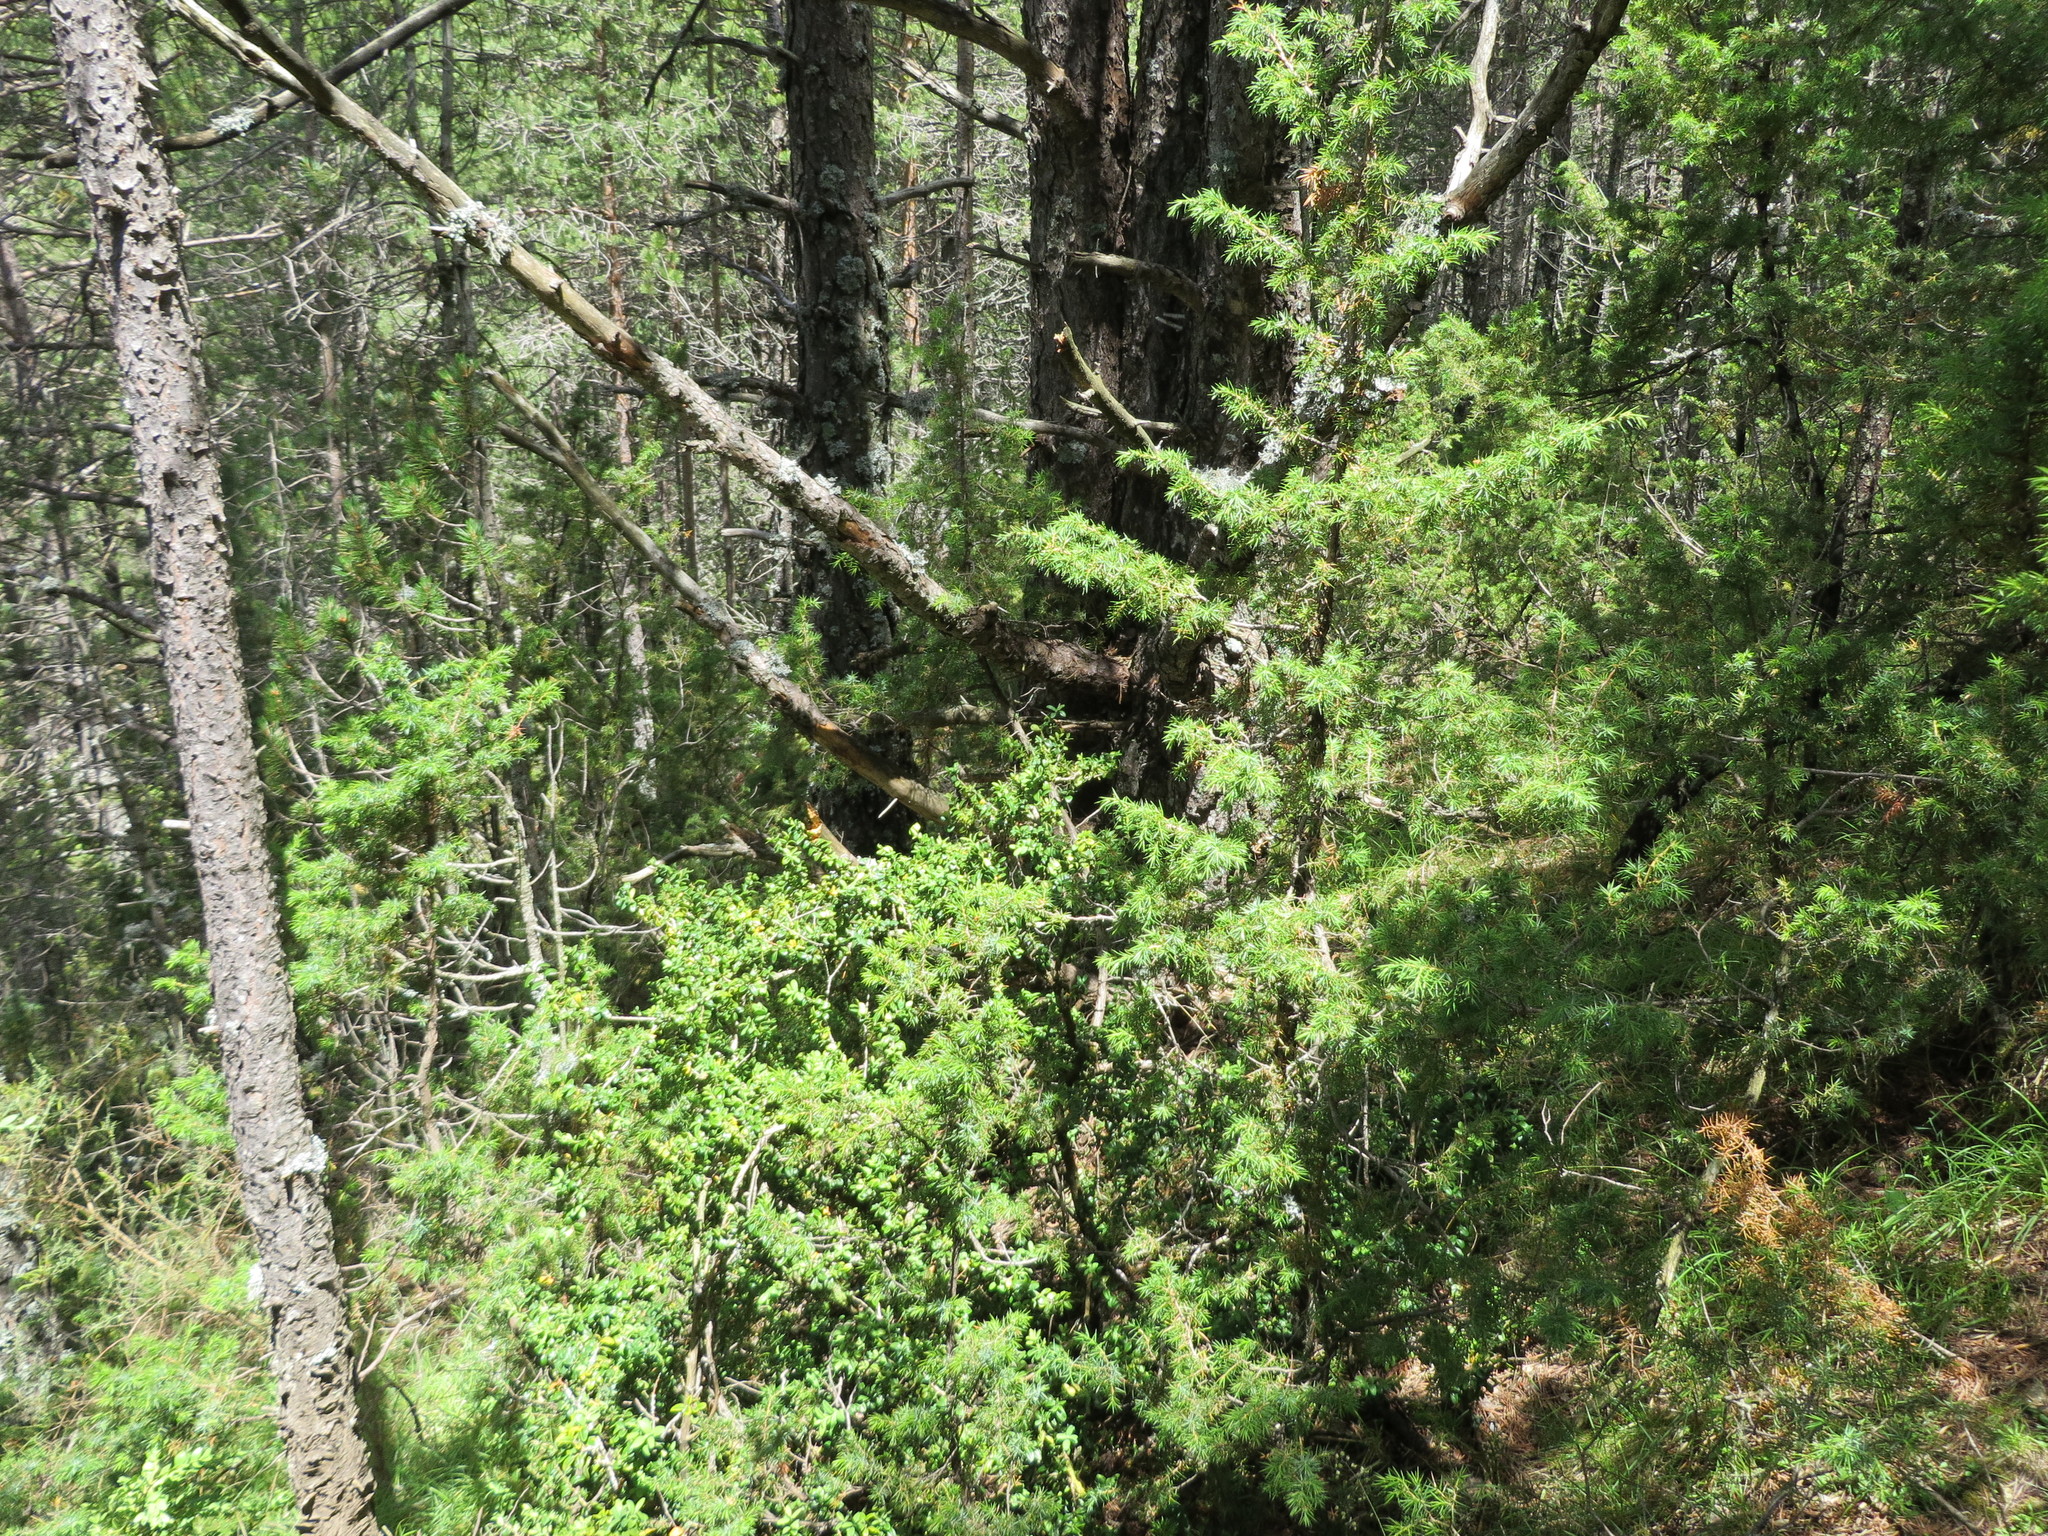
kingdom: Plantae
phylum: Tracheophyta
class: Pinopsida
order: Pinales
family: Cupressaceae
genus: Juniperus
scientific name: Juniperus communis
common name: Common juniper
